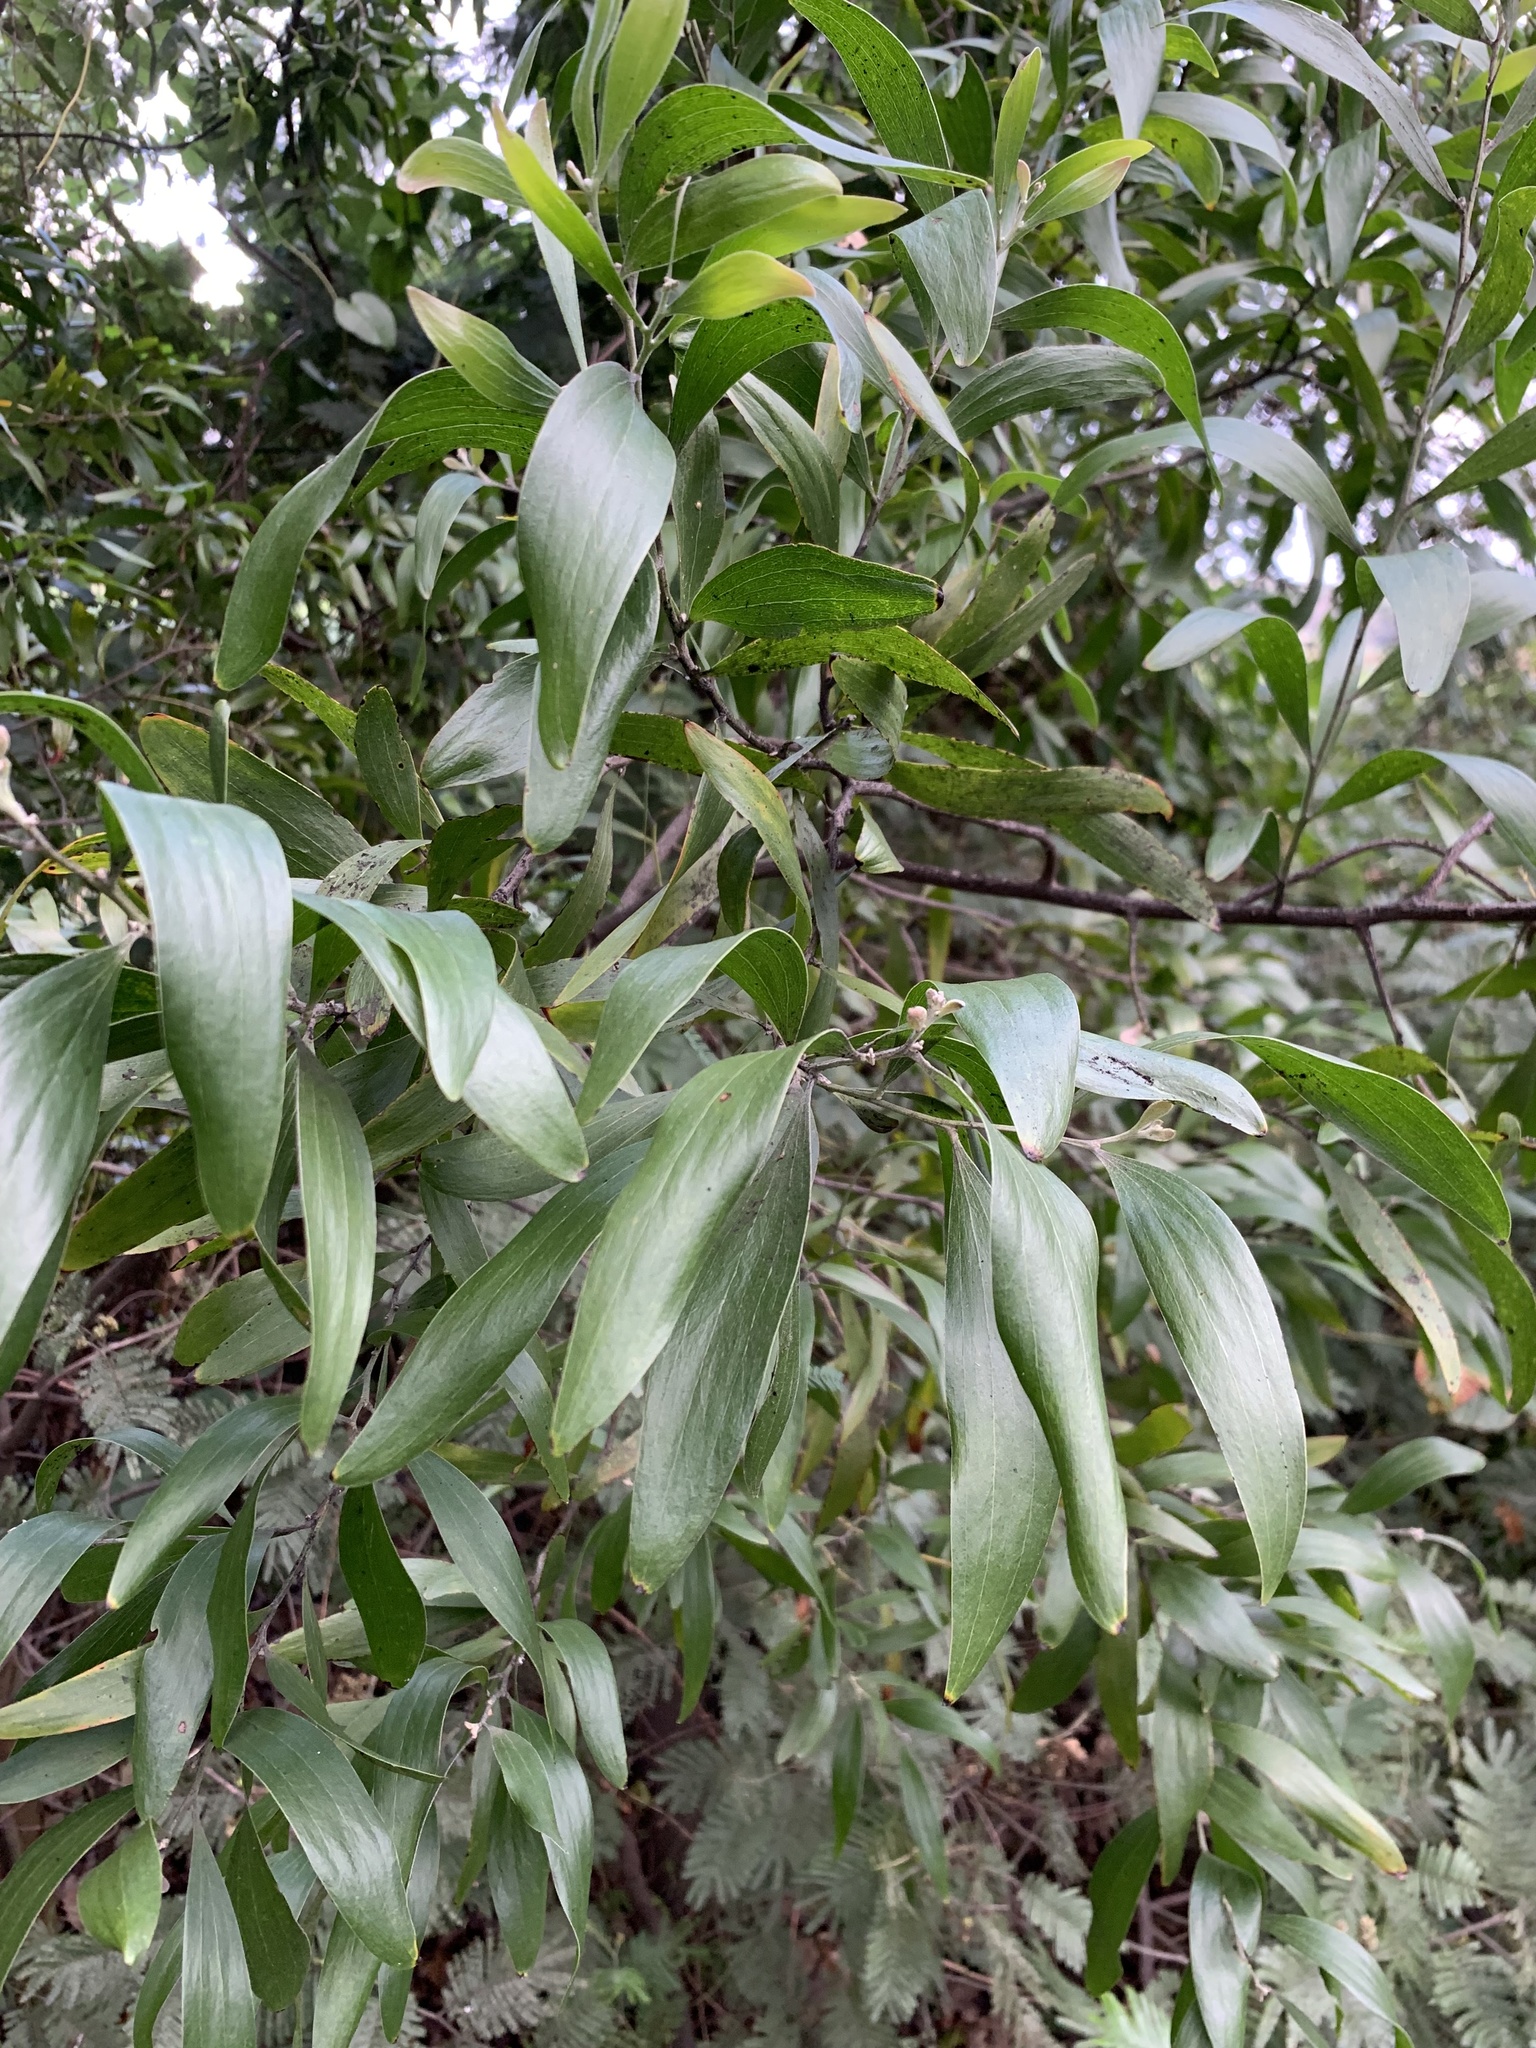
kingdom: Plantae
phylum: Tracheophyta
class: Magnoliopsida
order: Fabales
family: Fabaceae
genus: Acacia
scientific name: Acacia melanoxylon
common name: Blackwood
